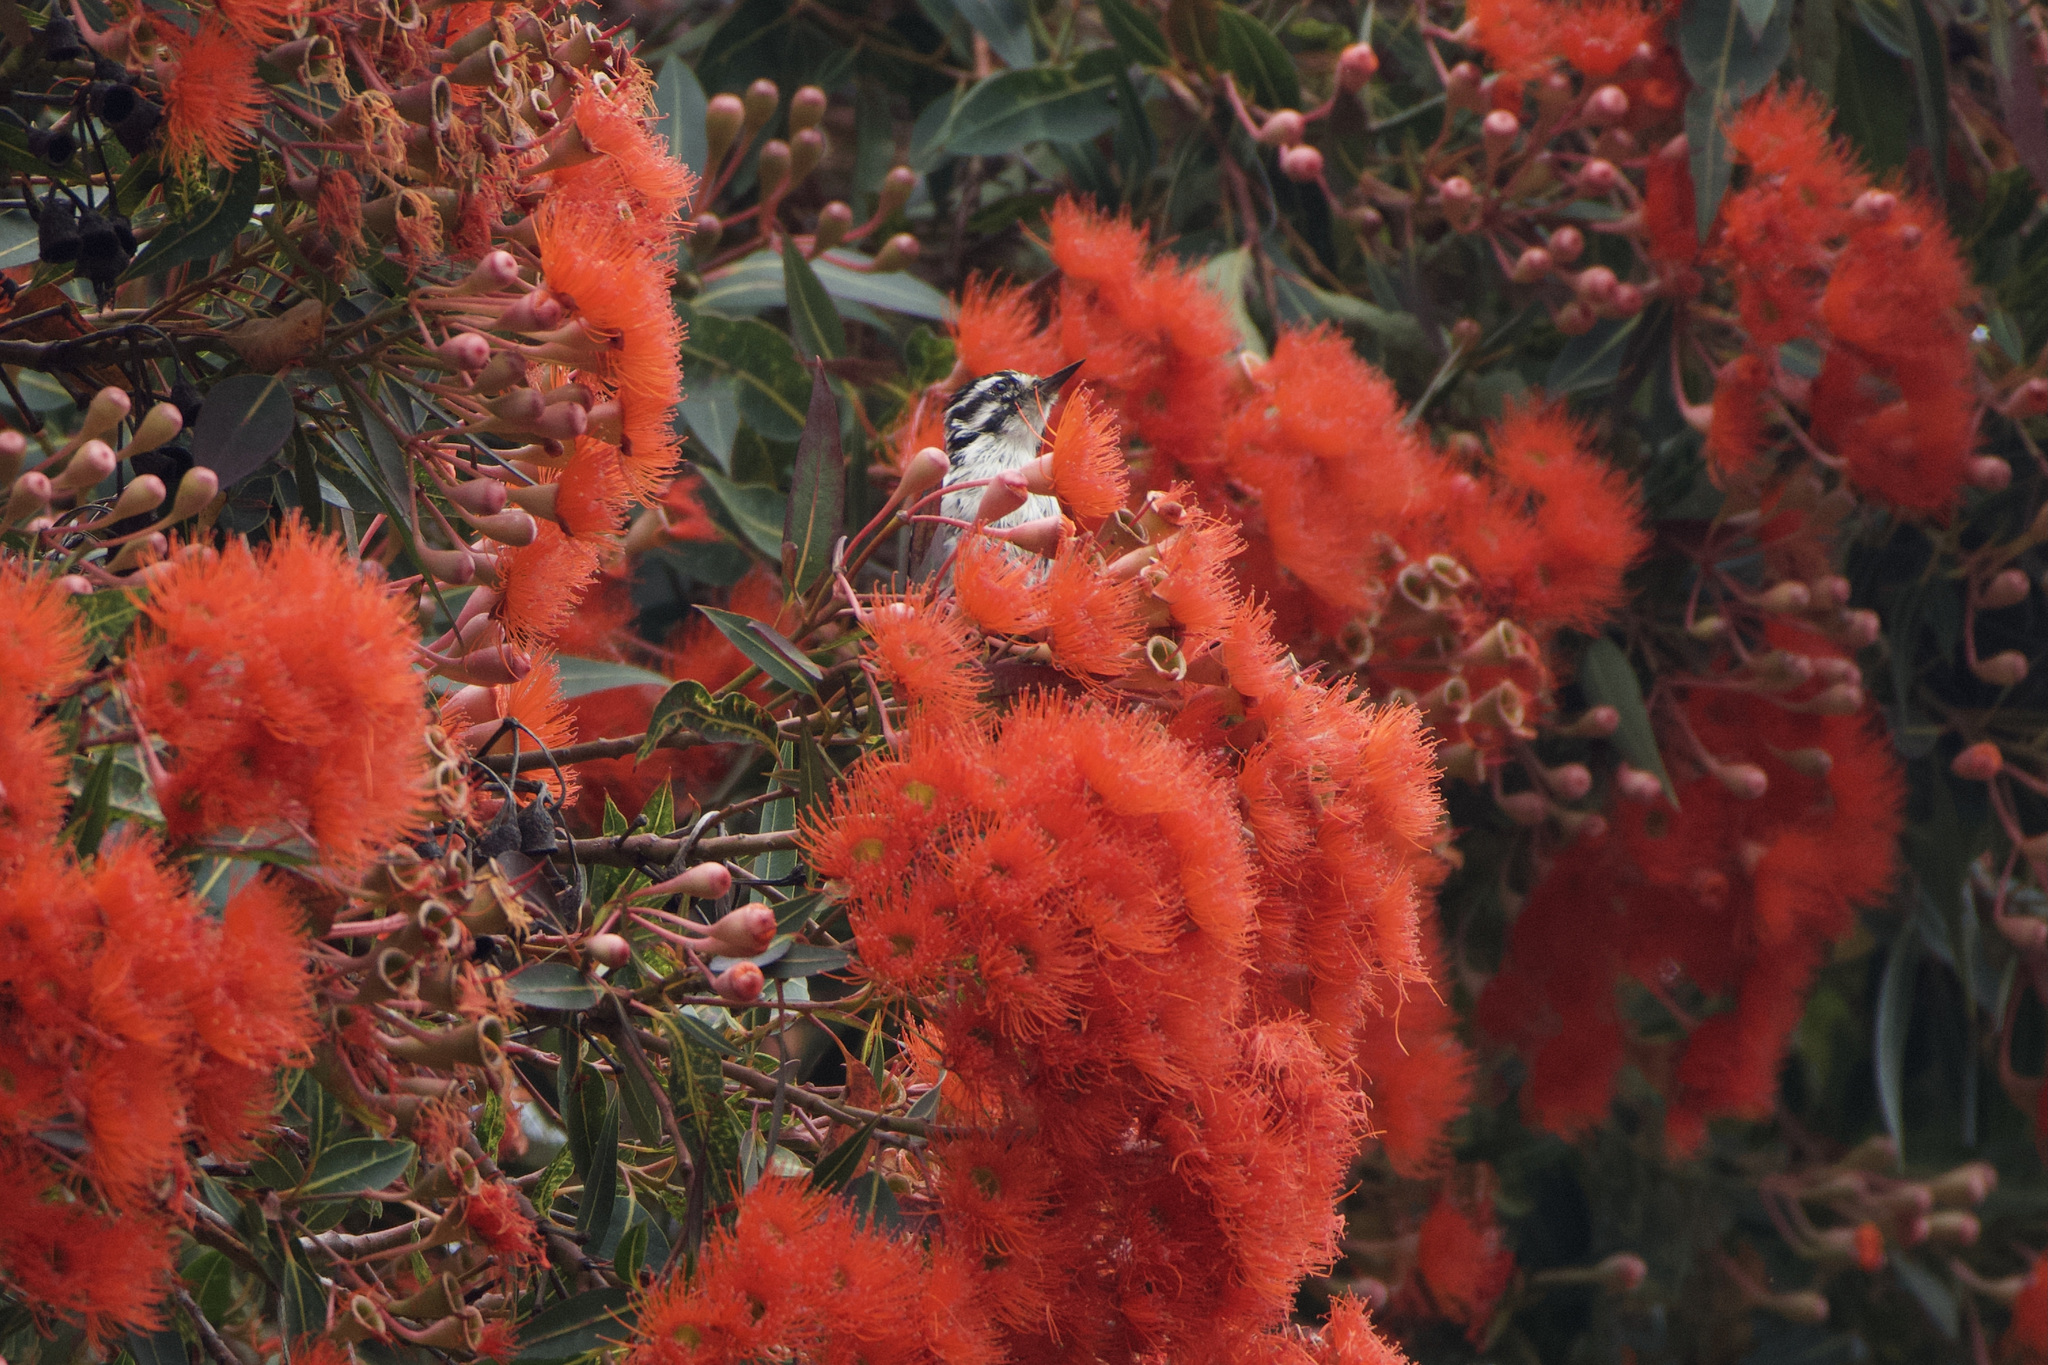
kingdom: Animalia
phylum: Chordata
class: Aves
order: Piciformes
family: Picidae
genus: Dryobates
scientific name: Dryobates nuttallii
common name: Nuttall's woodpecker
